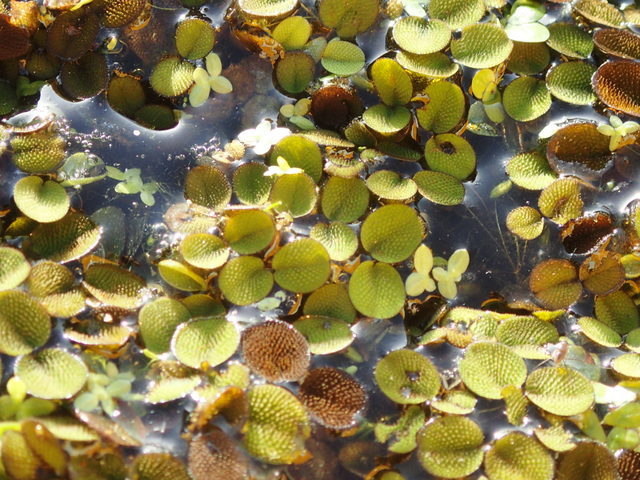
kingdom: Plantae
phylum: Tracheophyta
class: Polypodiopsida
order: Salviniales
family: Salviniaceae
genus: Salvinia
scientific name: Salvinia minima
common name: Water spangles
